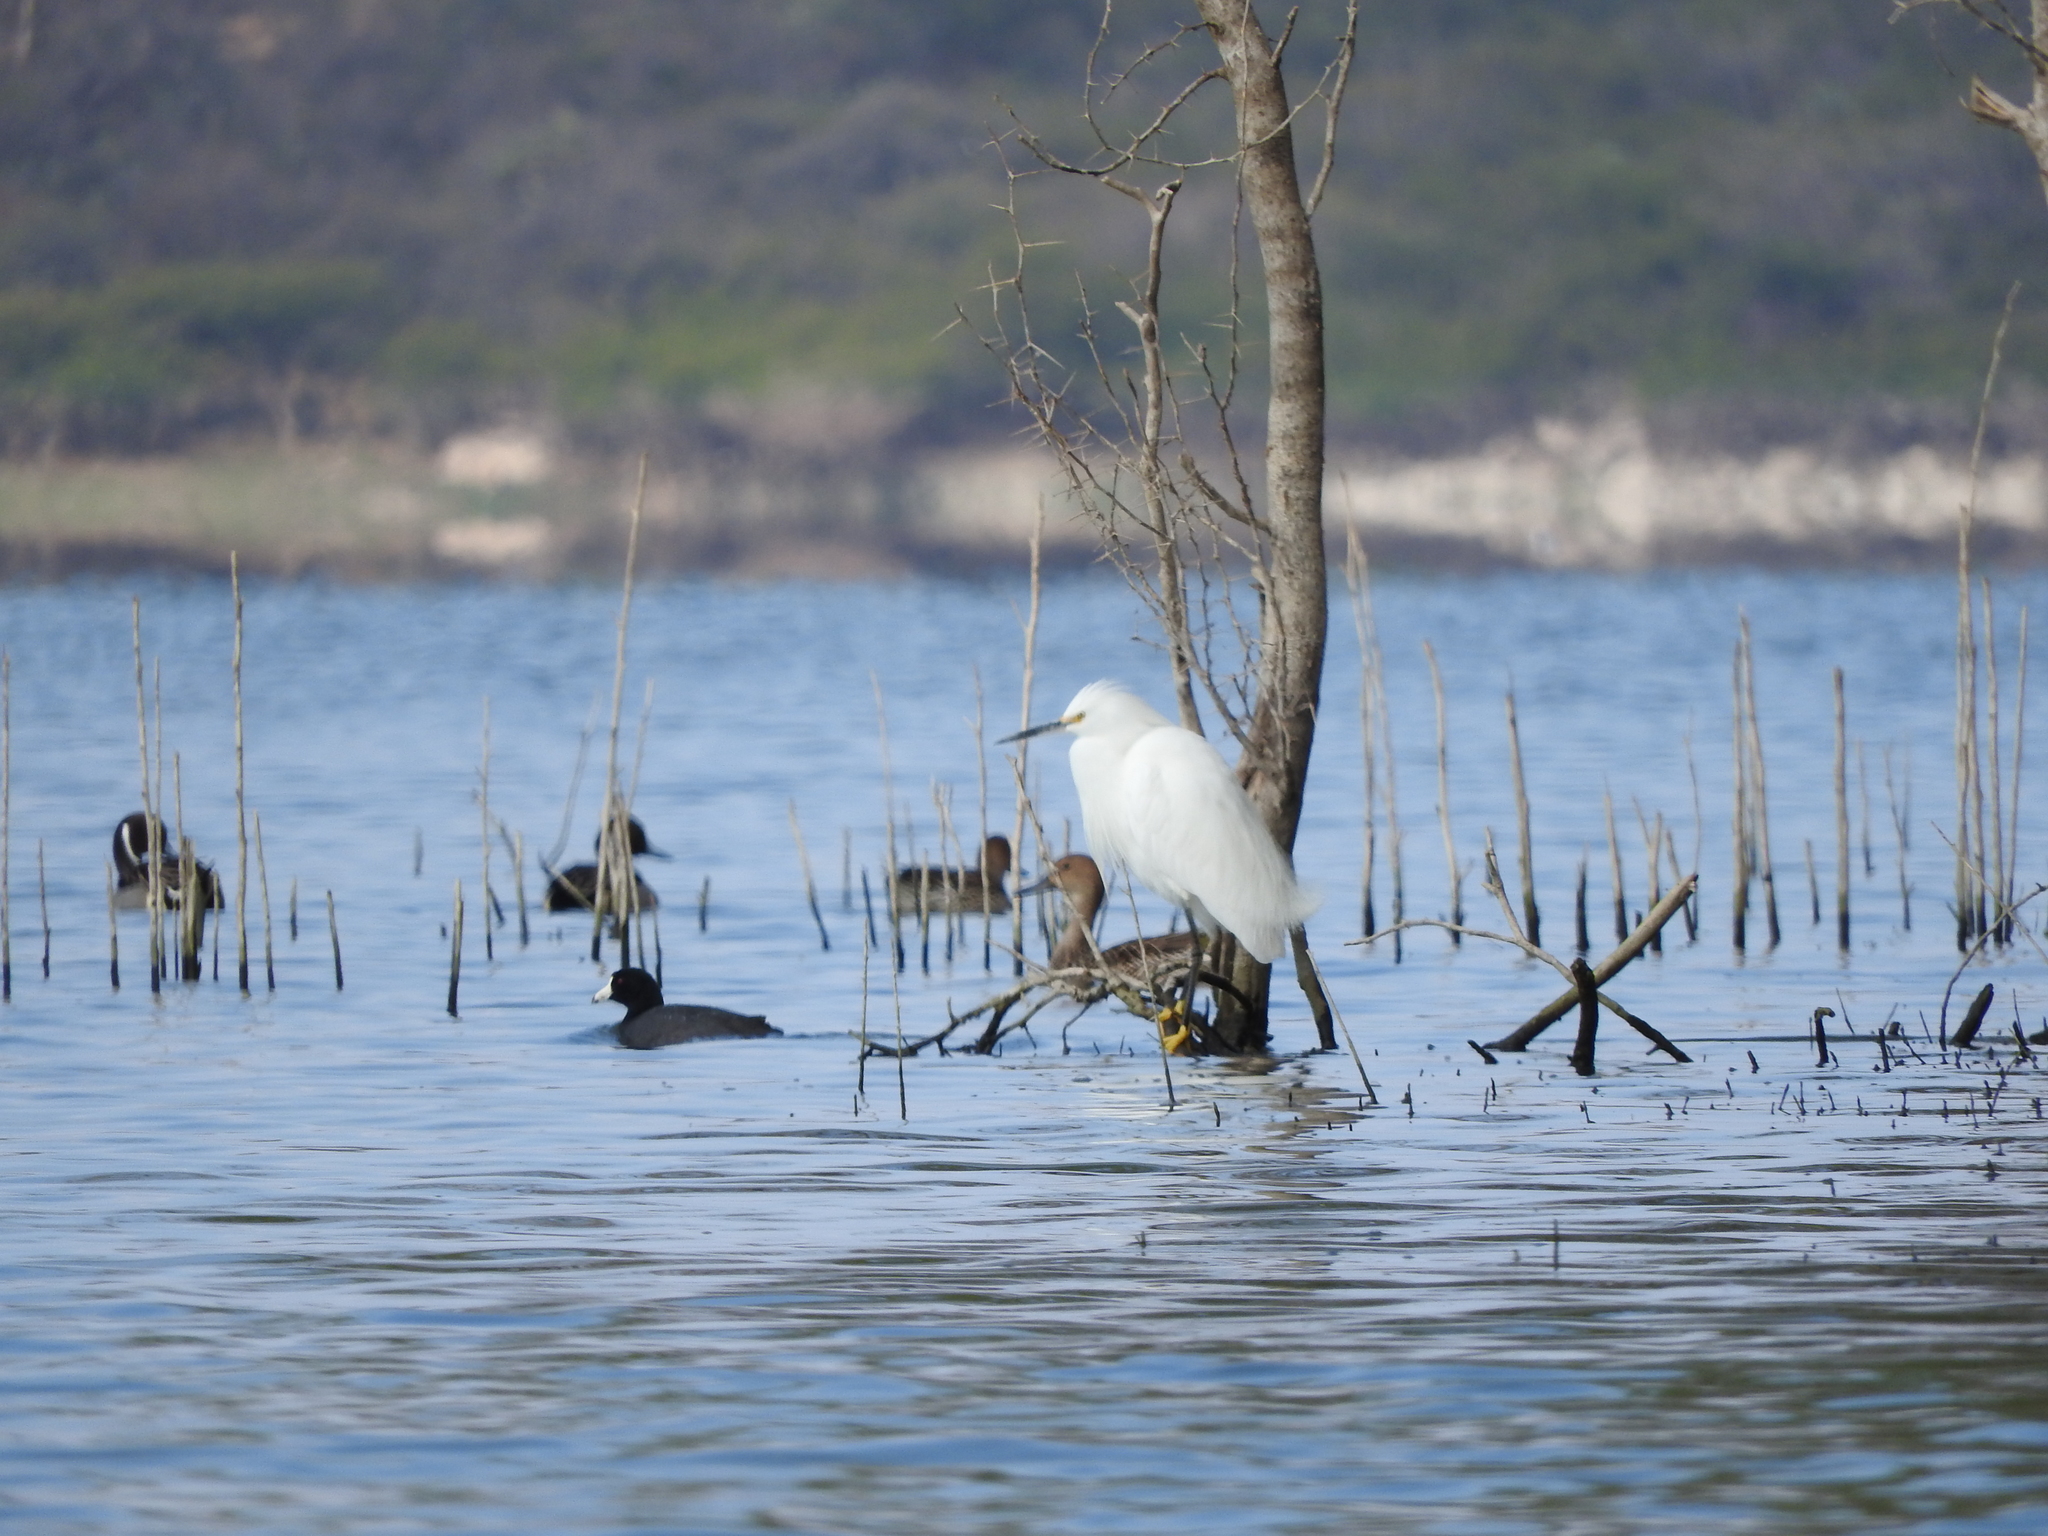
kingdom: Animalia
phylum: Chordata
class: Aves
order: Pelecaniformes
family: Ardeidae
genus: Egretta
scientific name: Egretta thula
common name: Snowy egret
